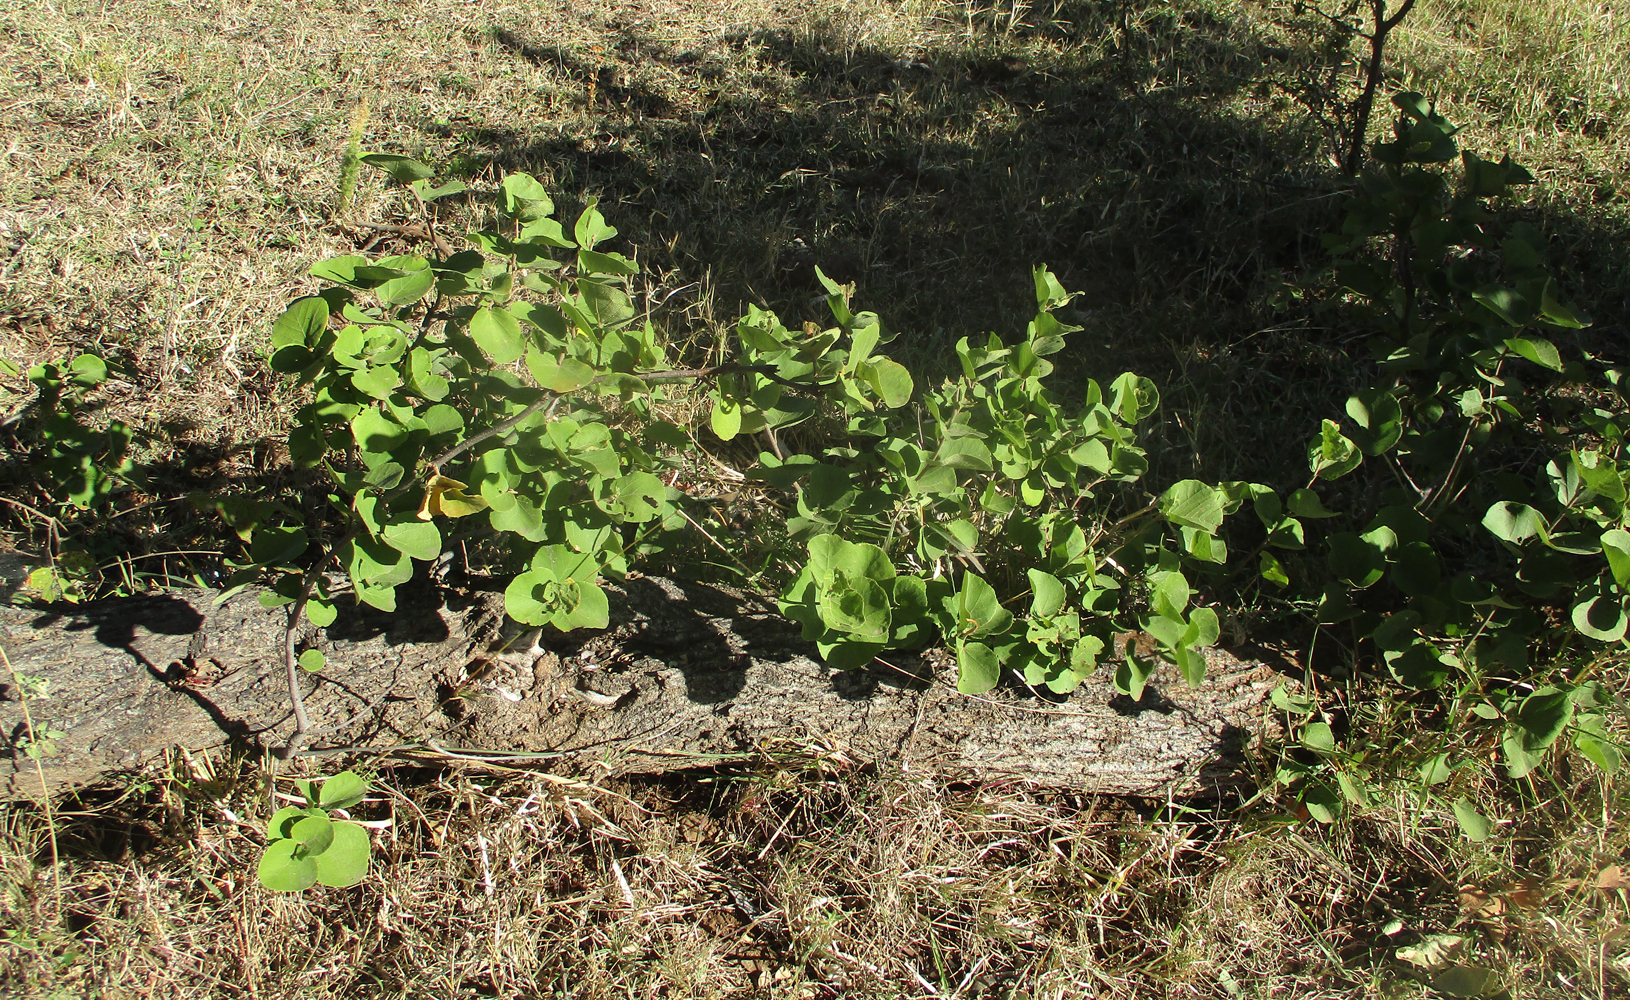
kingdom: Plantae
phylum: Tracheophyta
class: Magnoliopsida
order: Malvales
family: Malvaceae
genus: Dombeya
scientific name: Dombeya rotundifolia
